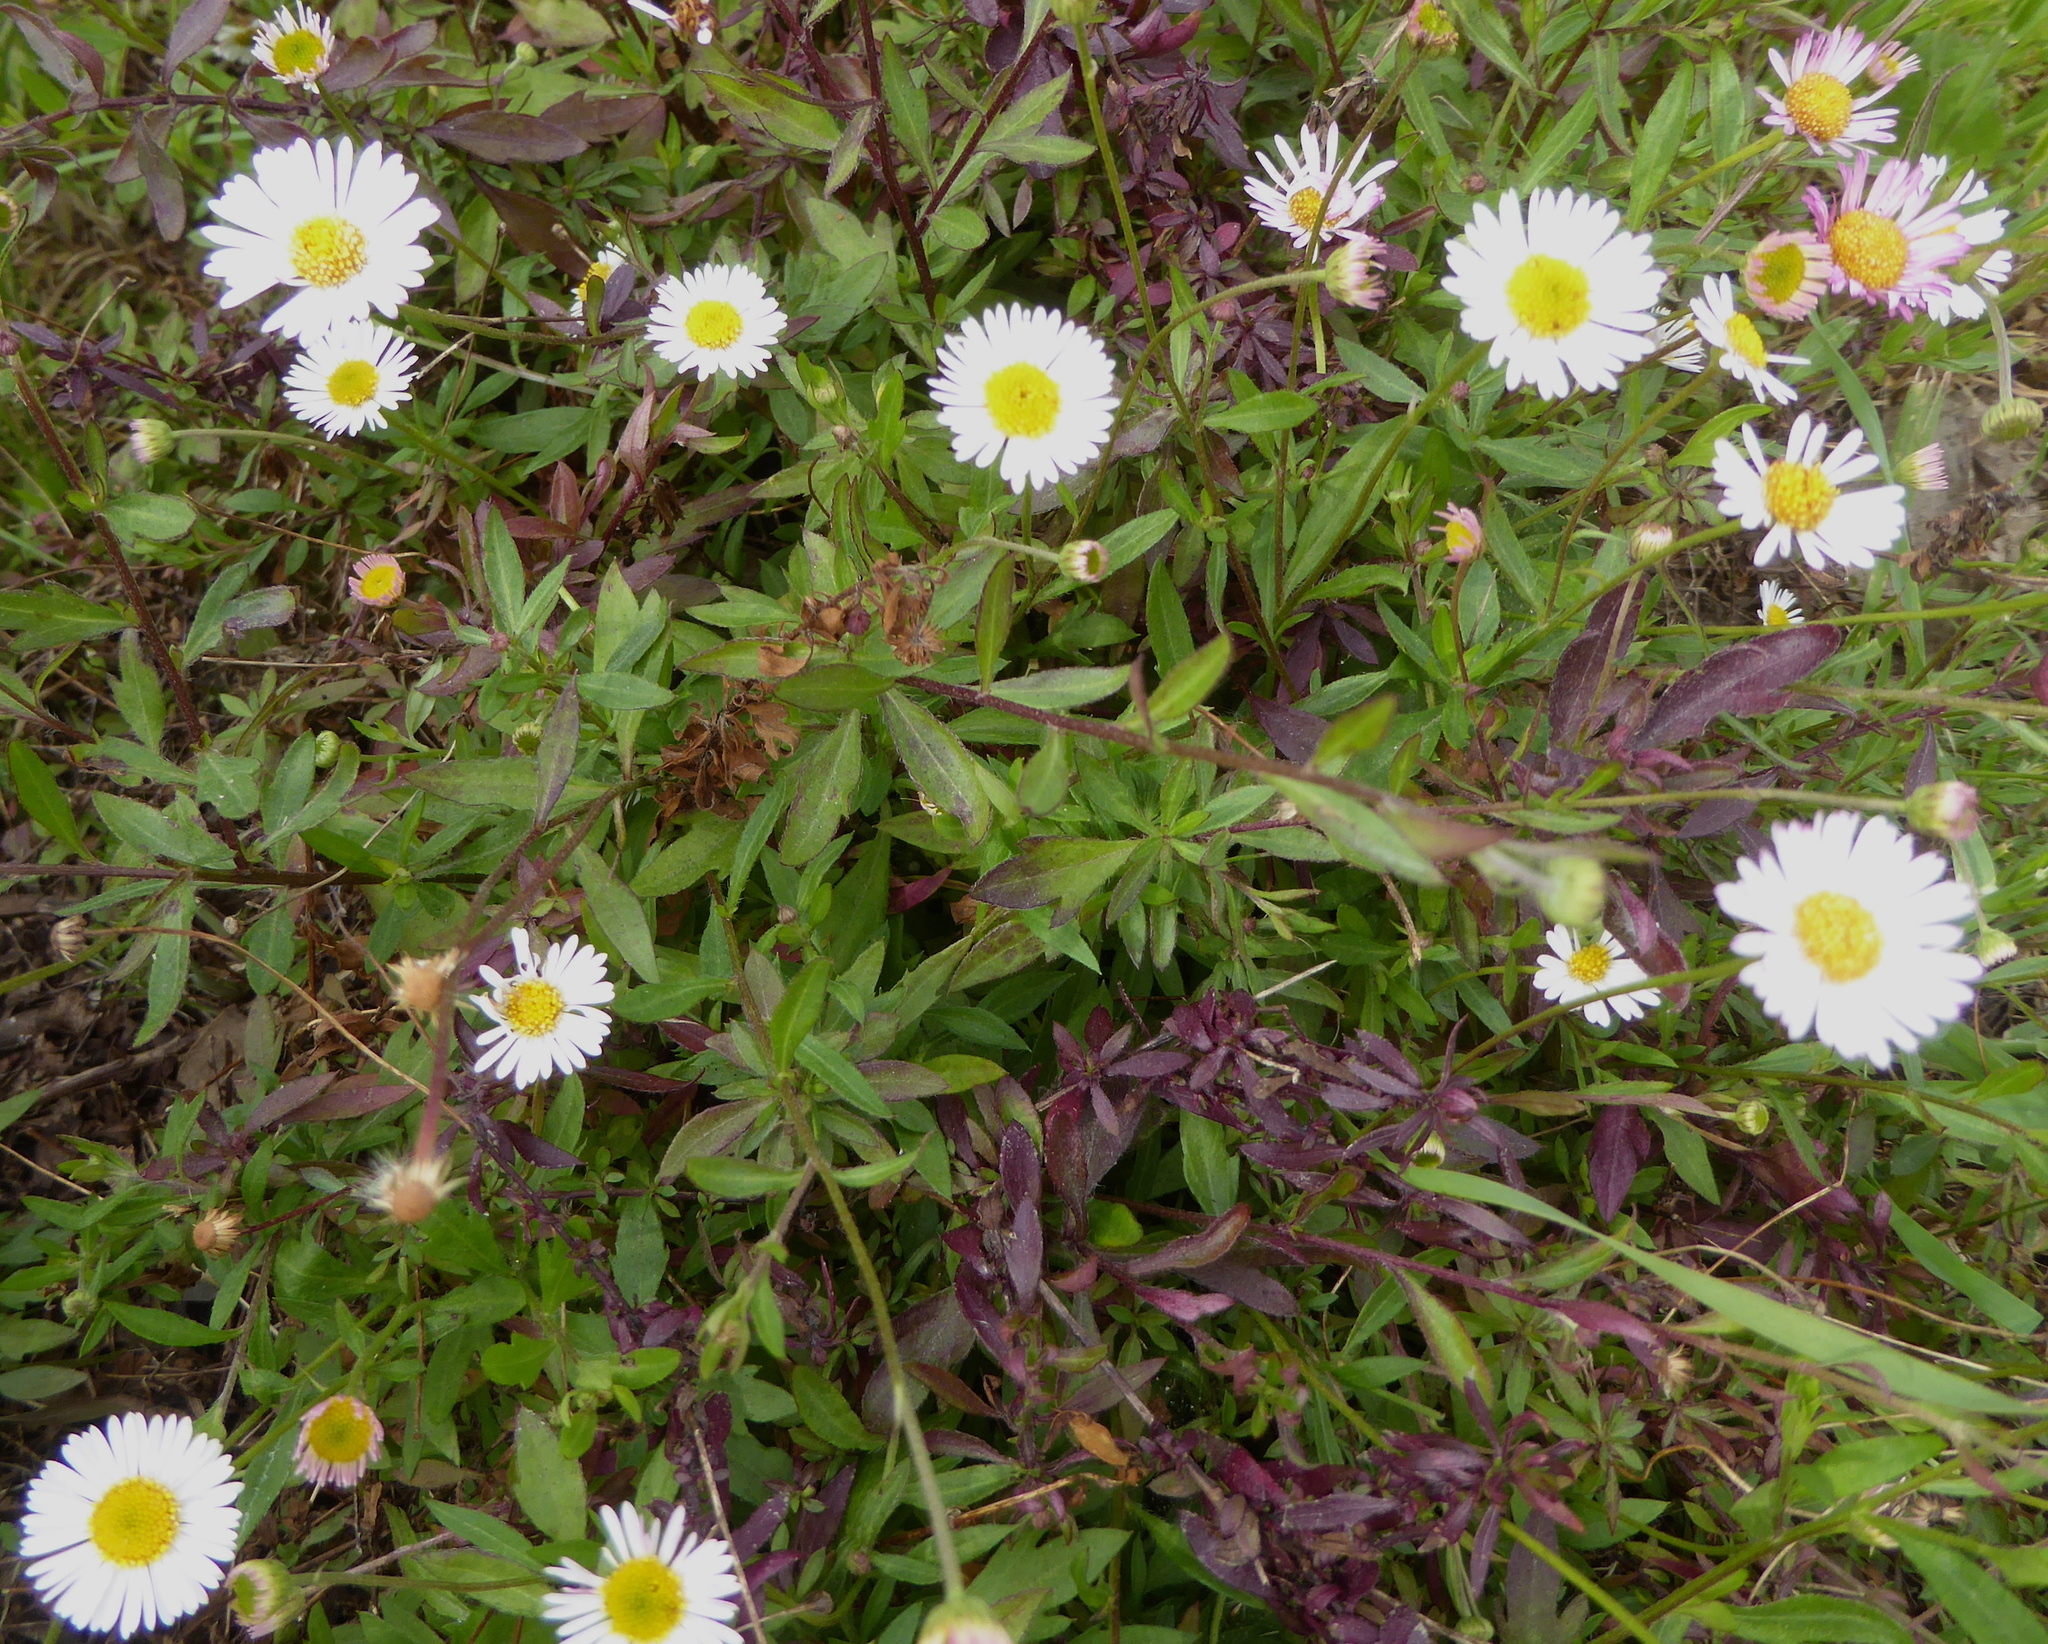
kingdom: Plantae
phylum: Tracheophyta
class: Magnoliopsida
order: Asterales
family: Asteraceae
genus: Erigeron
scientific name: Erigeron karvinskianus
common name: Mexican fleabane
